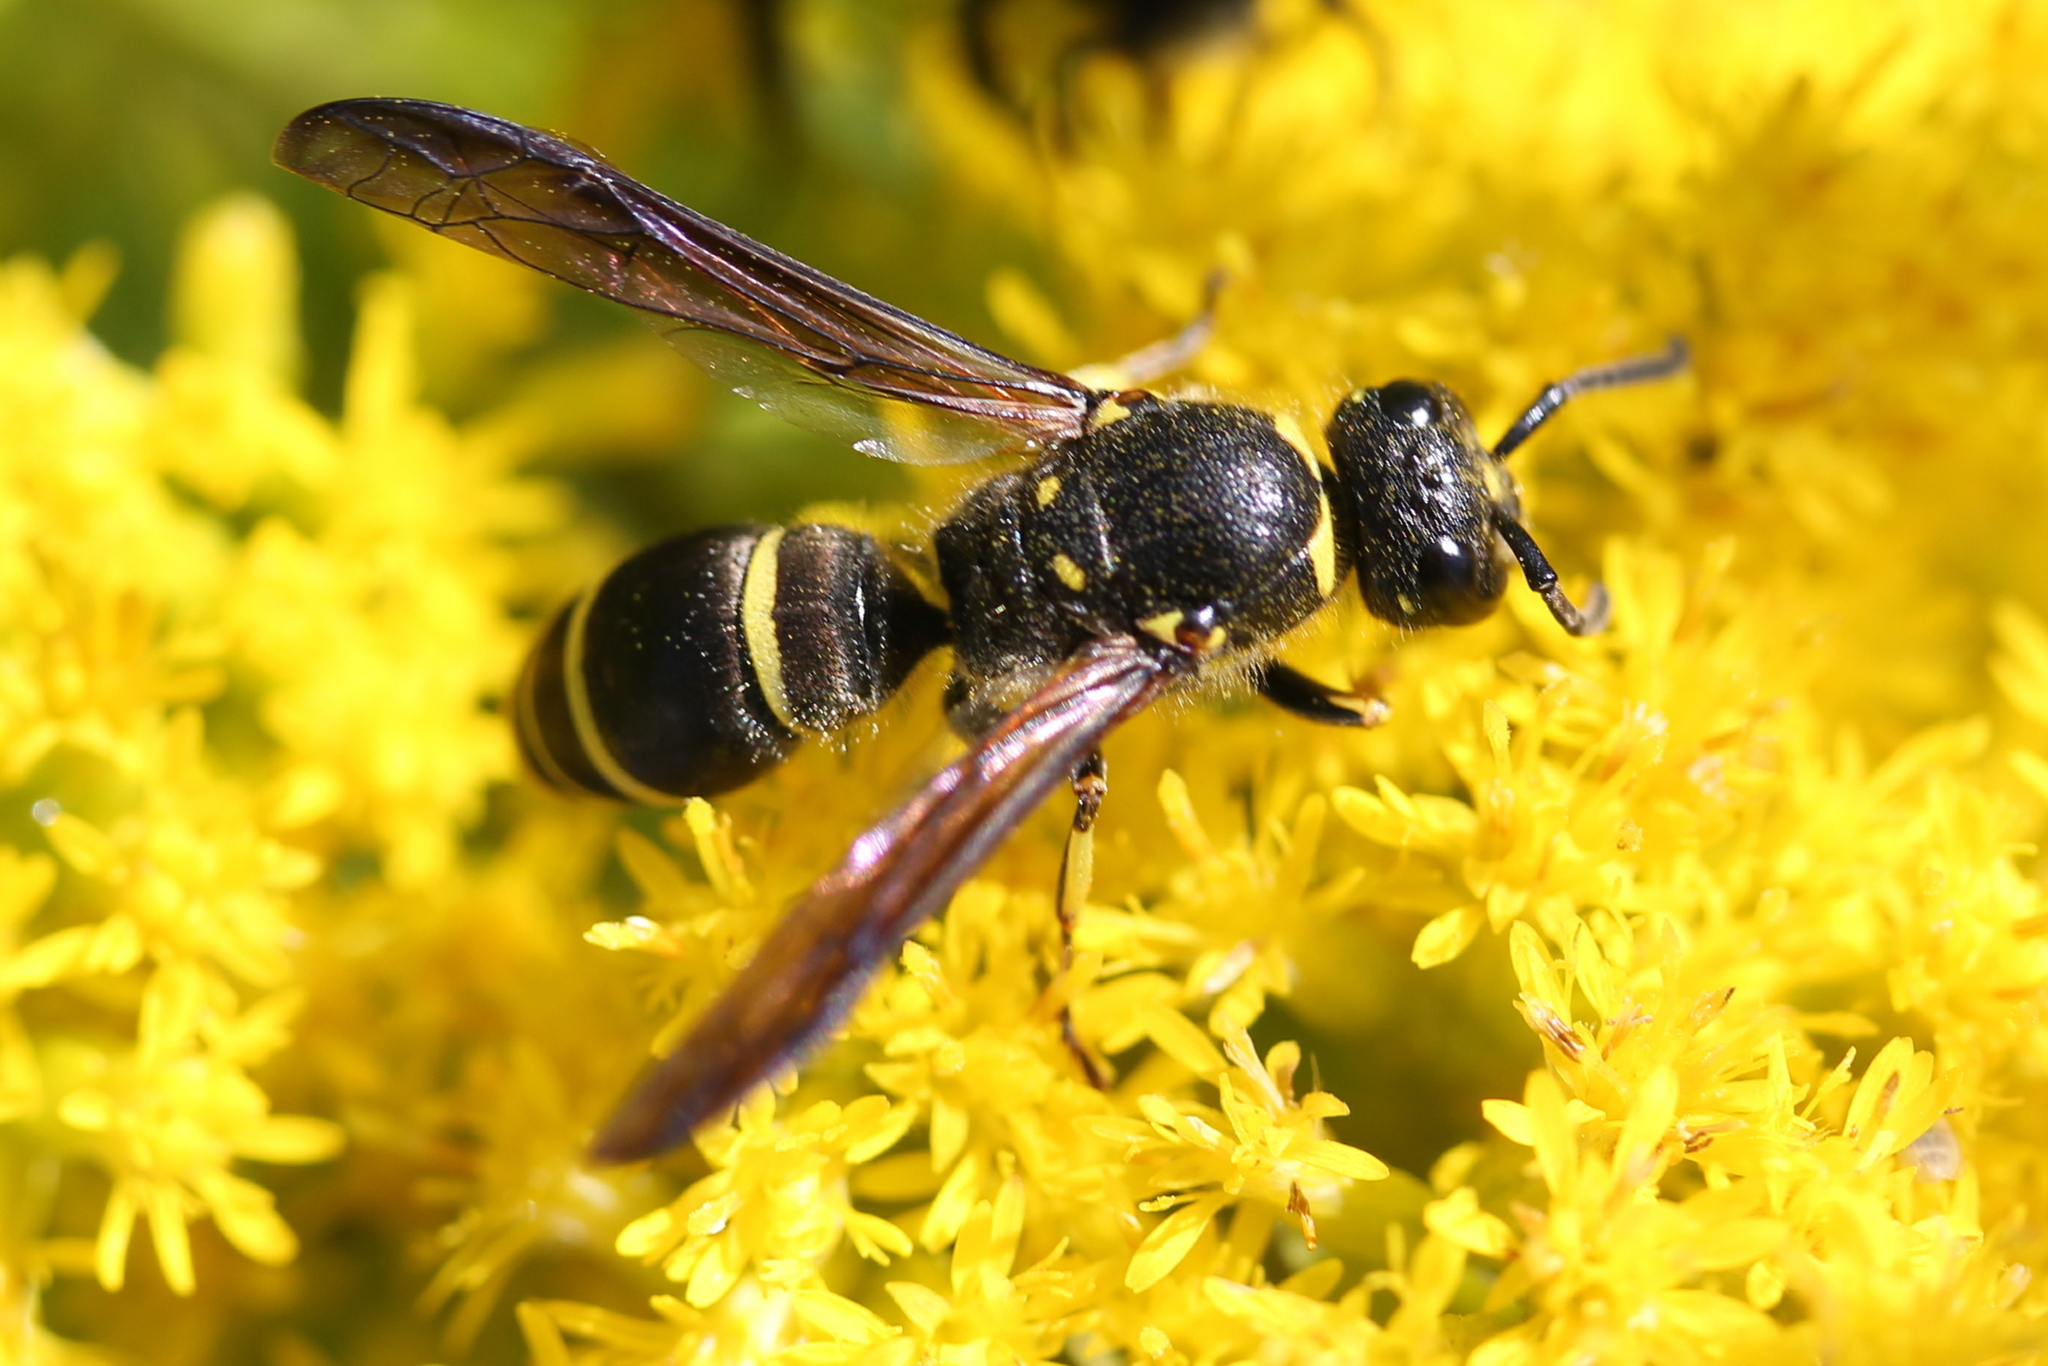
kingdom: Animalia
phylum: Arthropoda
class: Insecta
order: Hymenoptera
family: Vespidae
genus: Ancistrocerus
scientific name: Ancistrocerus
